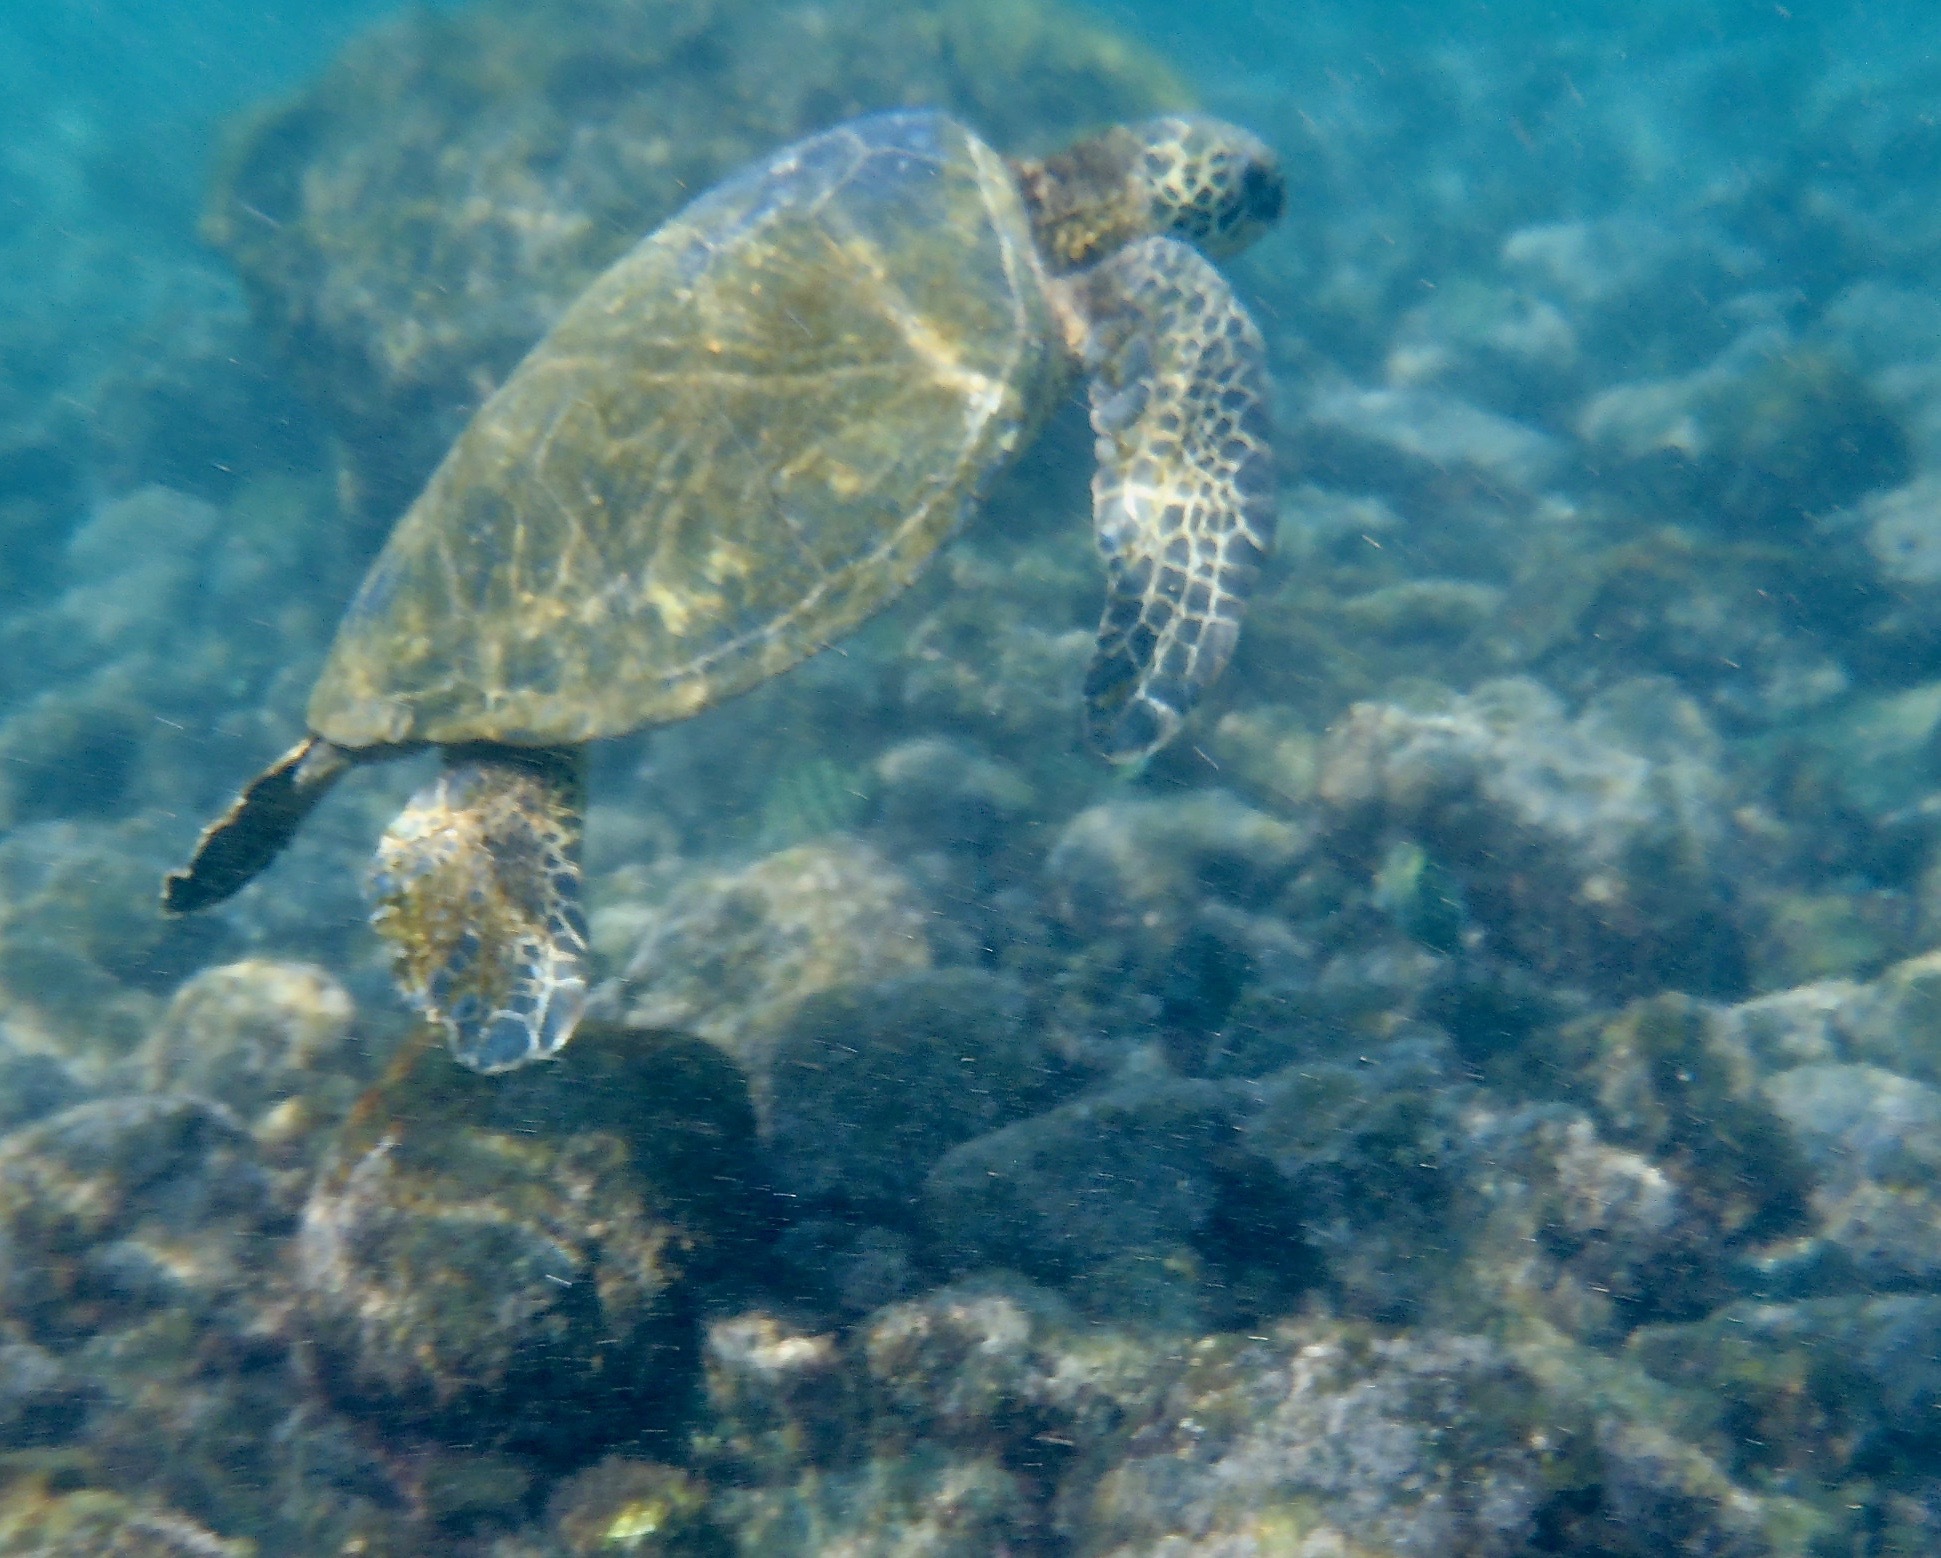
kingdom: Animalia
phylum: Chordata
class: Testudines
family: Cheloniidae
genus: Chelonia
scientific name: Chelonia mydas
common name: Green turtle
